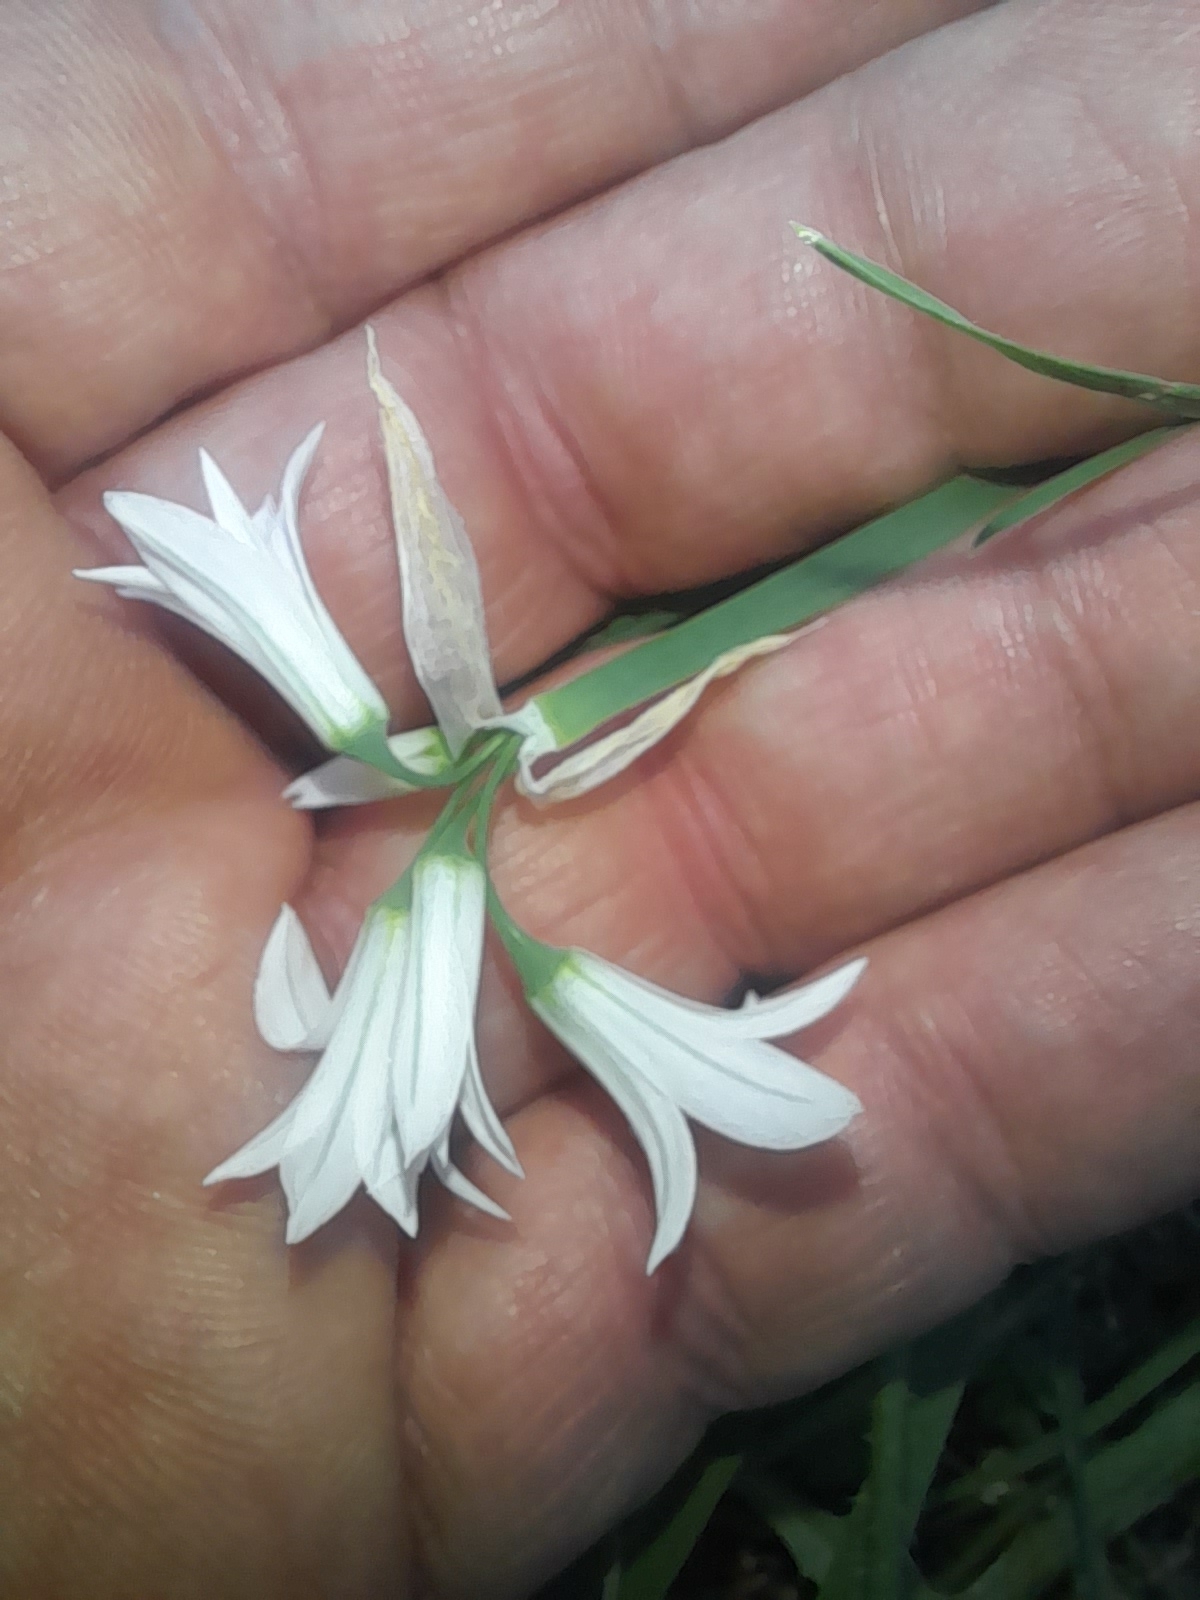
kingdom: Plantae
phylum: Tracheophyta
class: Liliopsida
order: Asparagales
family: Amaryllidaceae
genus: Allium
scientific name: Allium triquetrum
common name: Three-cornered garlic
